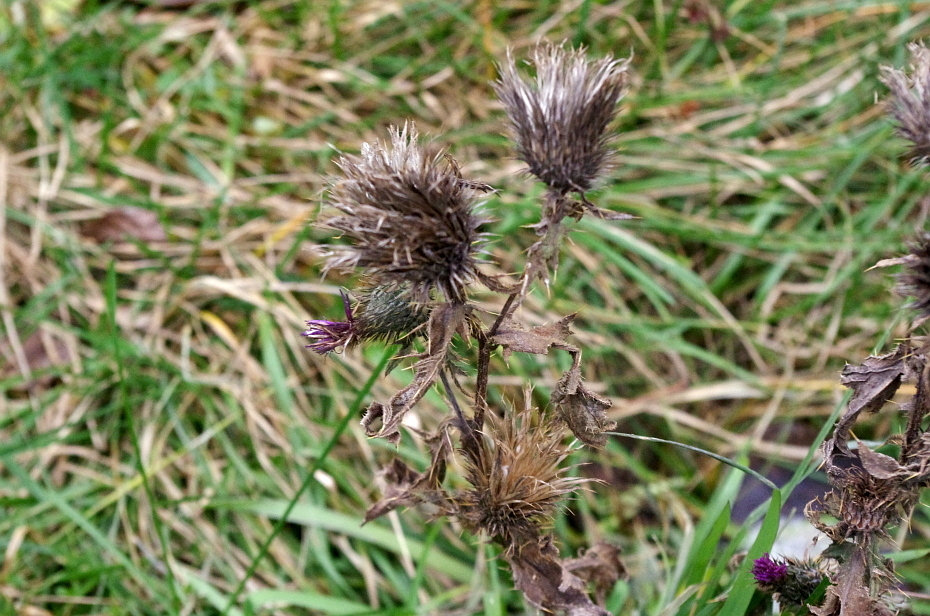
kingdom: Plantae
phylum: Tracheophyta
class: Magnoliopsida
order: Asterales
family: Asteraceae
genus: Cirsium
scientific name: Cirsium vulgare
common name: Bull thistle
